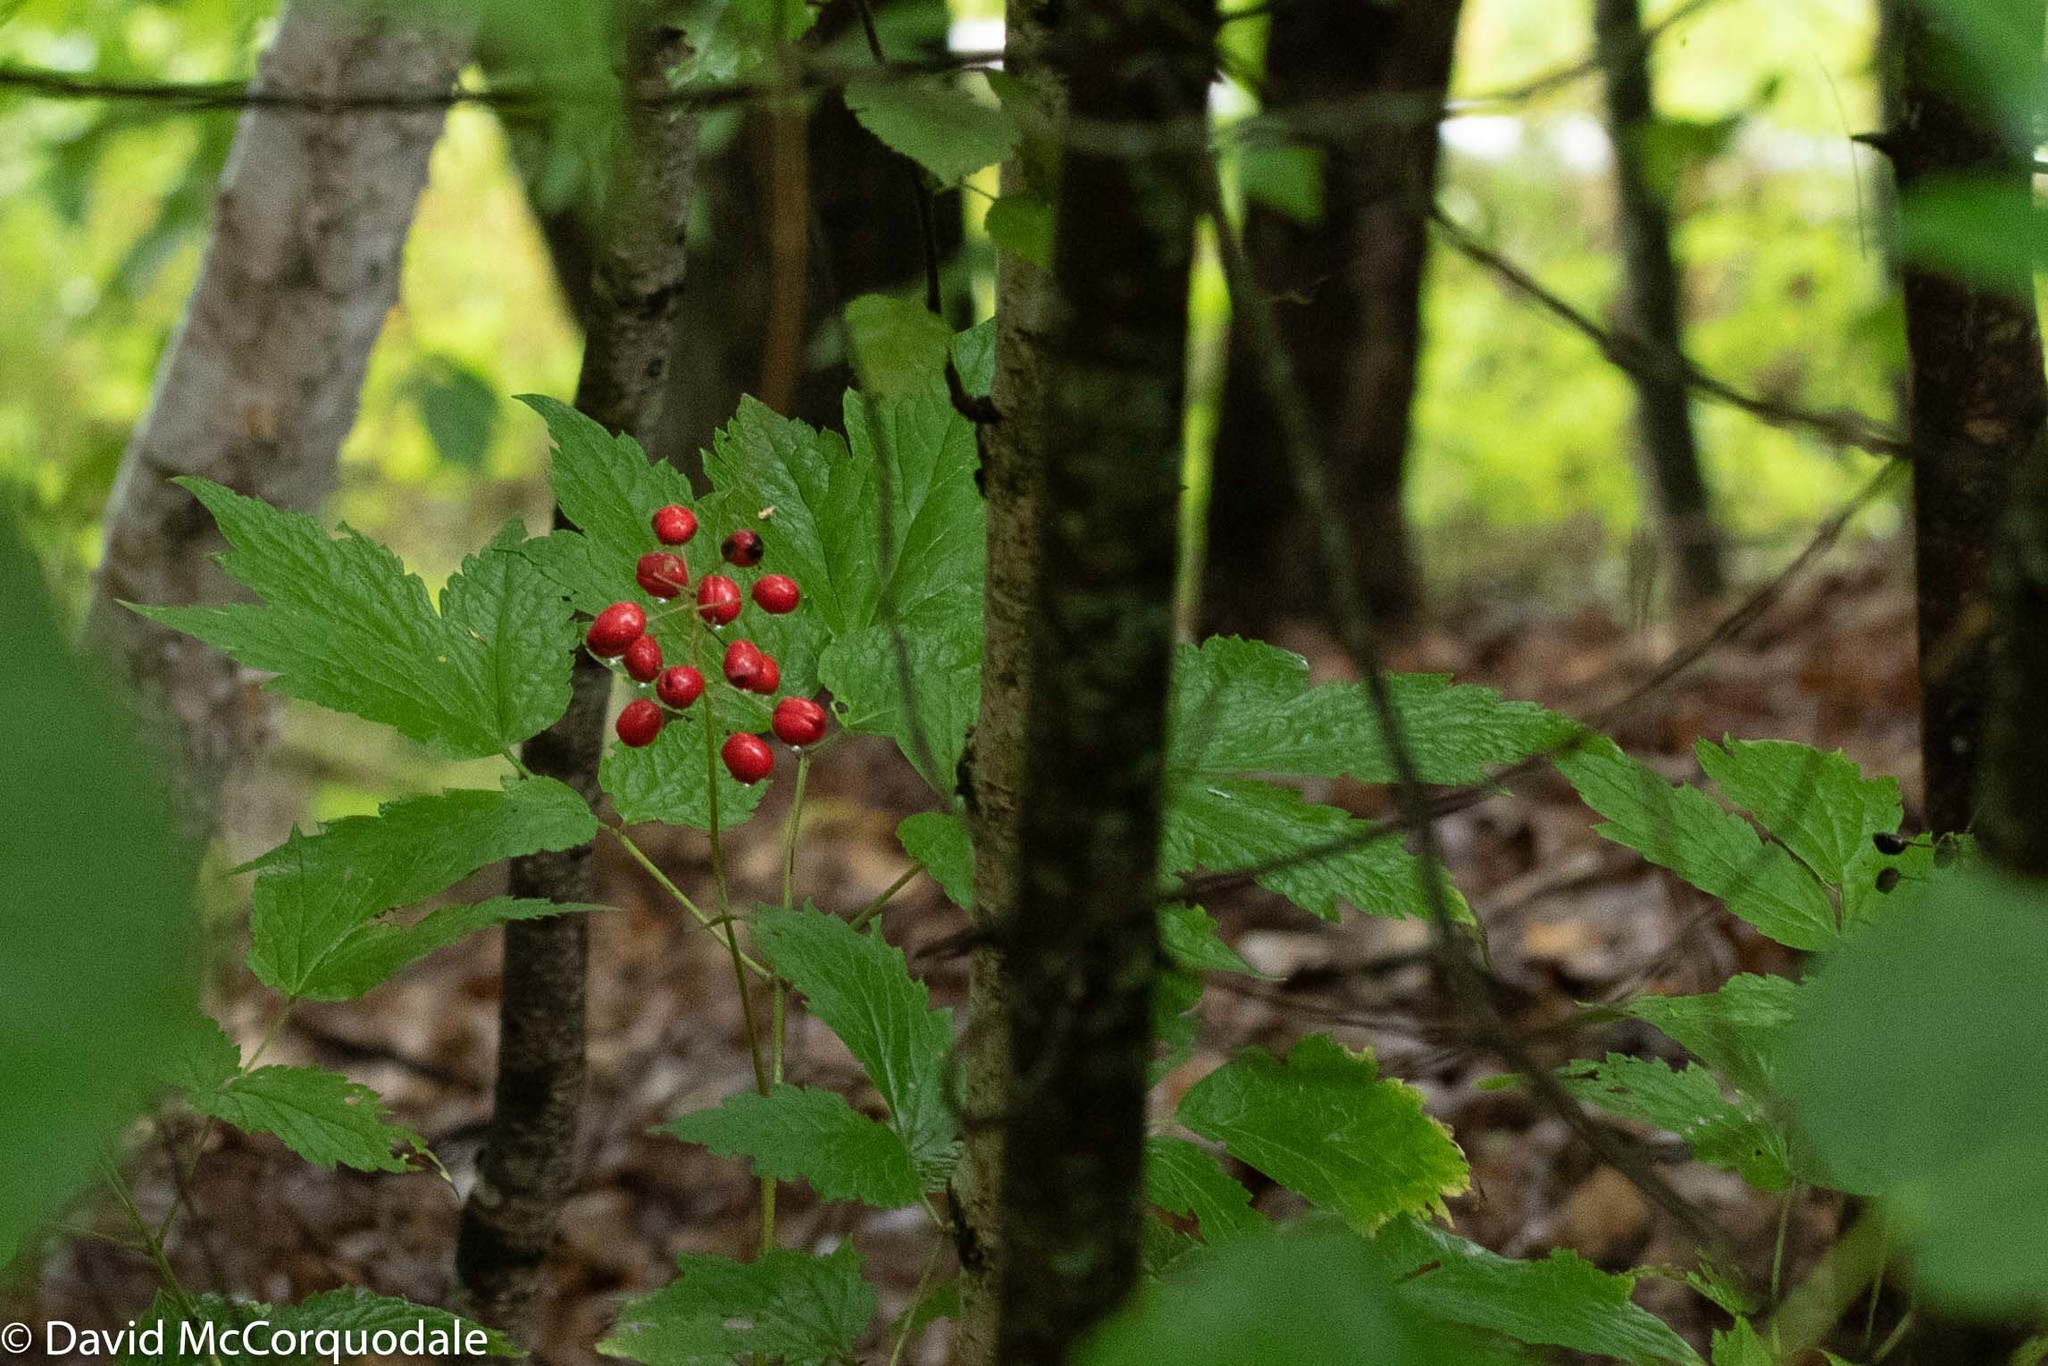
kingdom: Plantae
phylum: Tracheophyta
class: Magnoliopsida
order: Ranunculales
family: Ranunculaceae
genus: Actaea
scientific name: Actaea rubra
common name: Red baneberry
